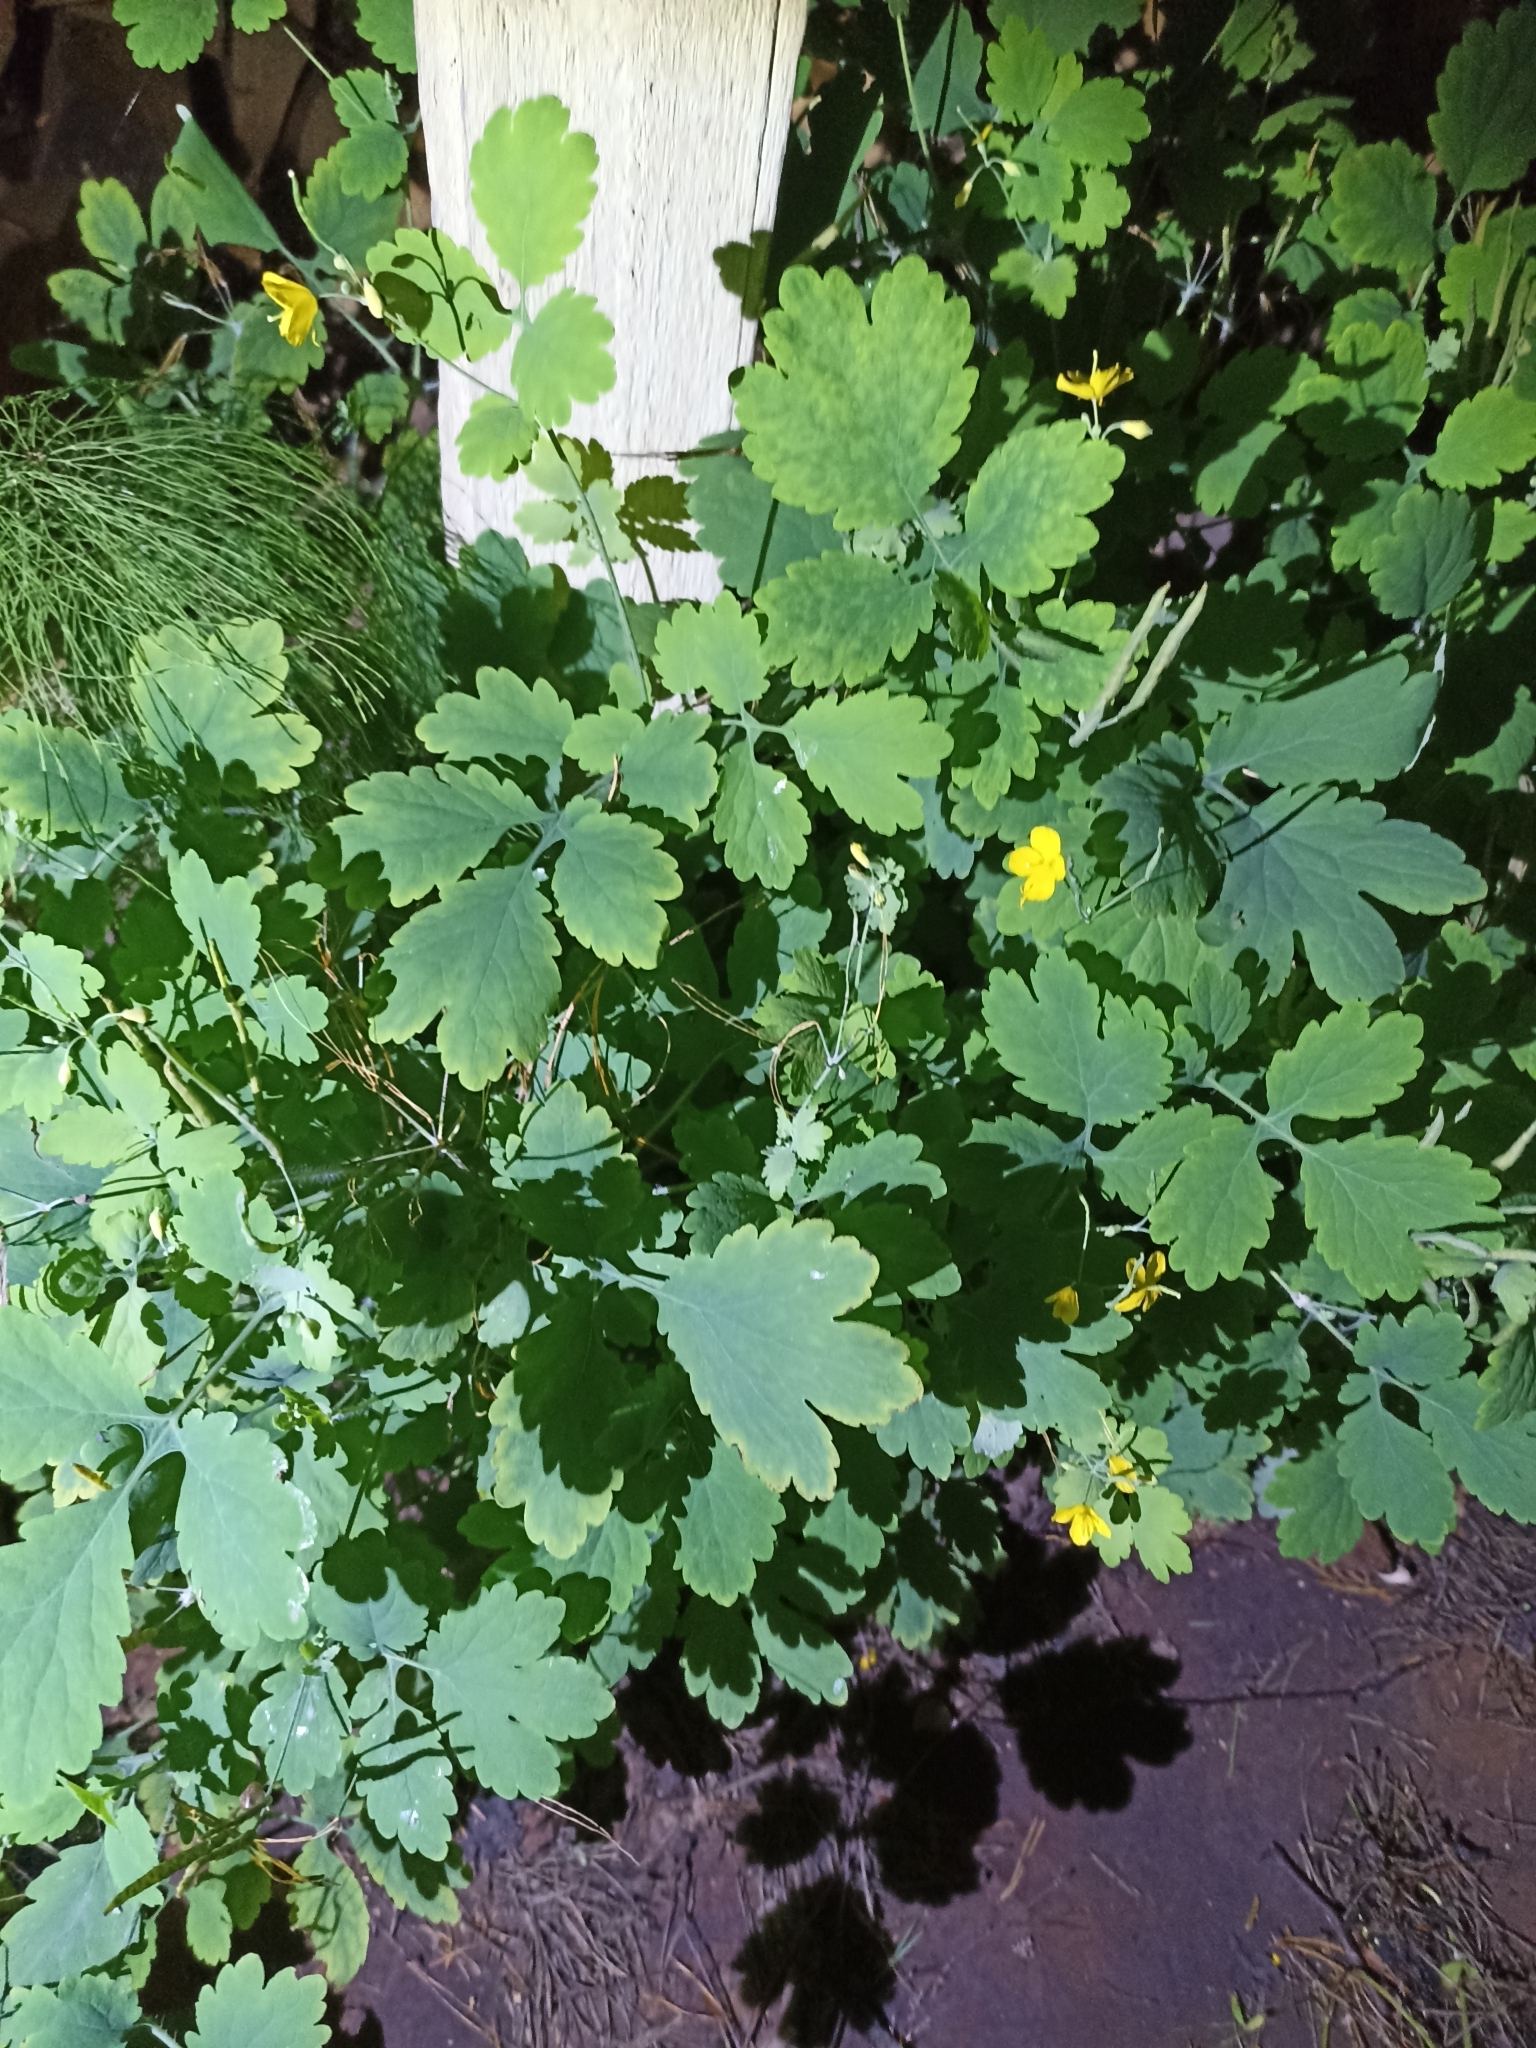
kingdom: Plantae
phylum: Tracheophyta
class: Magnoliopsida
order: Ranunculales
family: Papaveraceae
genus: Chelidonium
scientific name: Chelidonium majus
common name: Greater celandine
